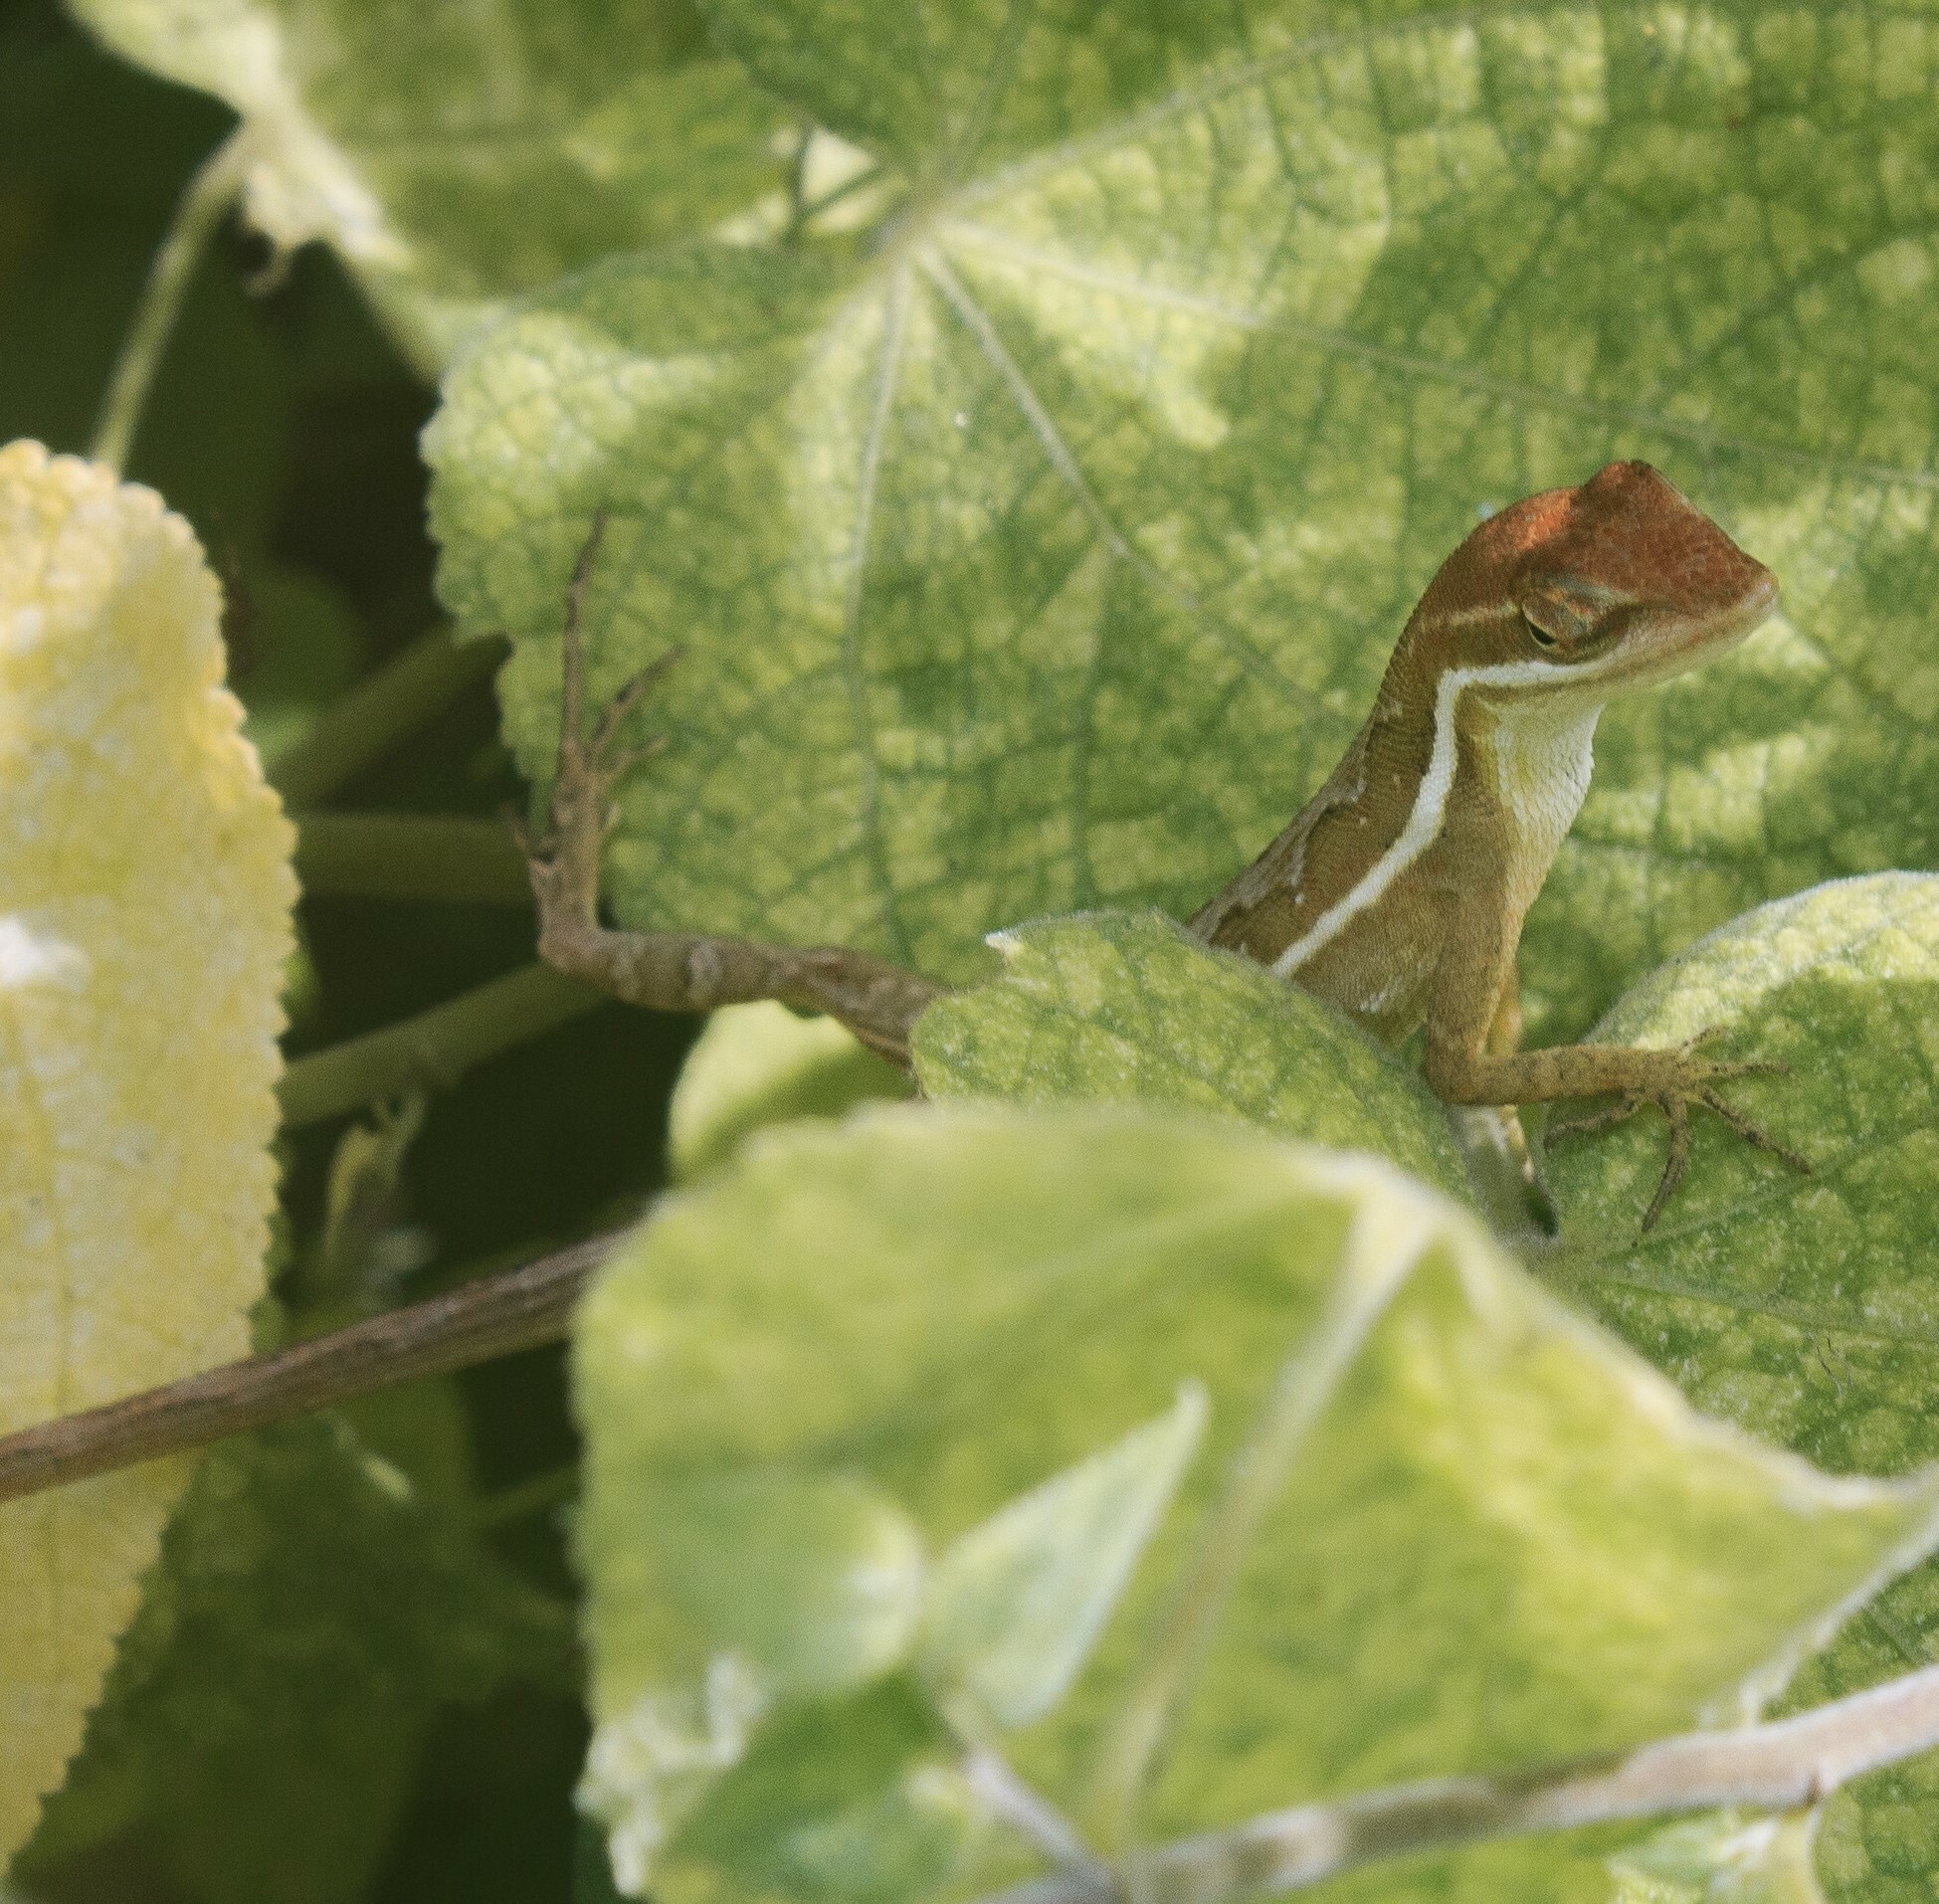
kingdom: Animalia
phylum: Chordata
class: Squamata
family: Dactyloidae
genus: Anolis
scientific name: Anolis auratus
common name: Grass anole
